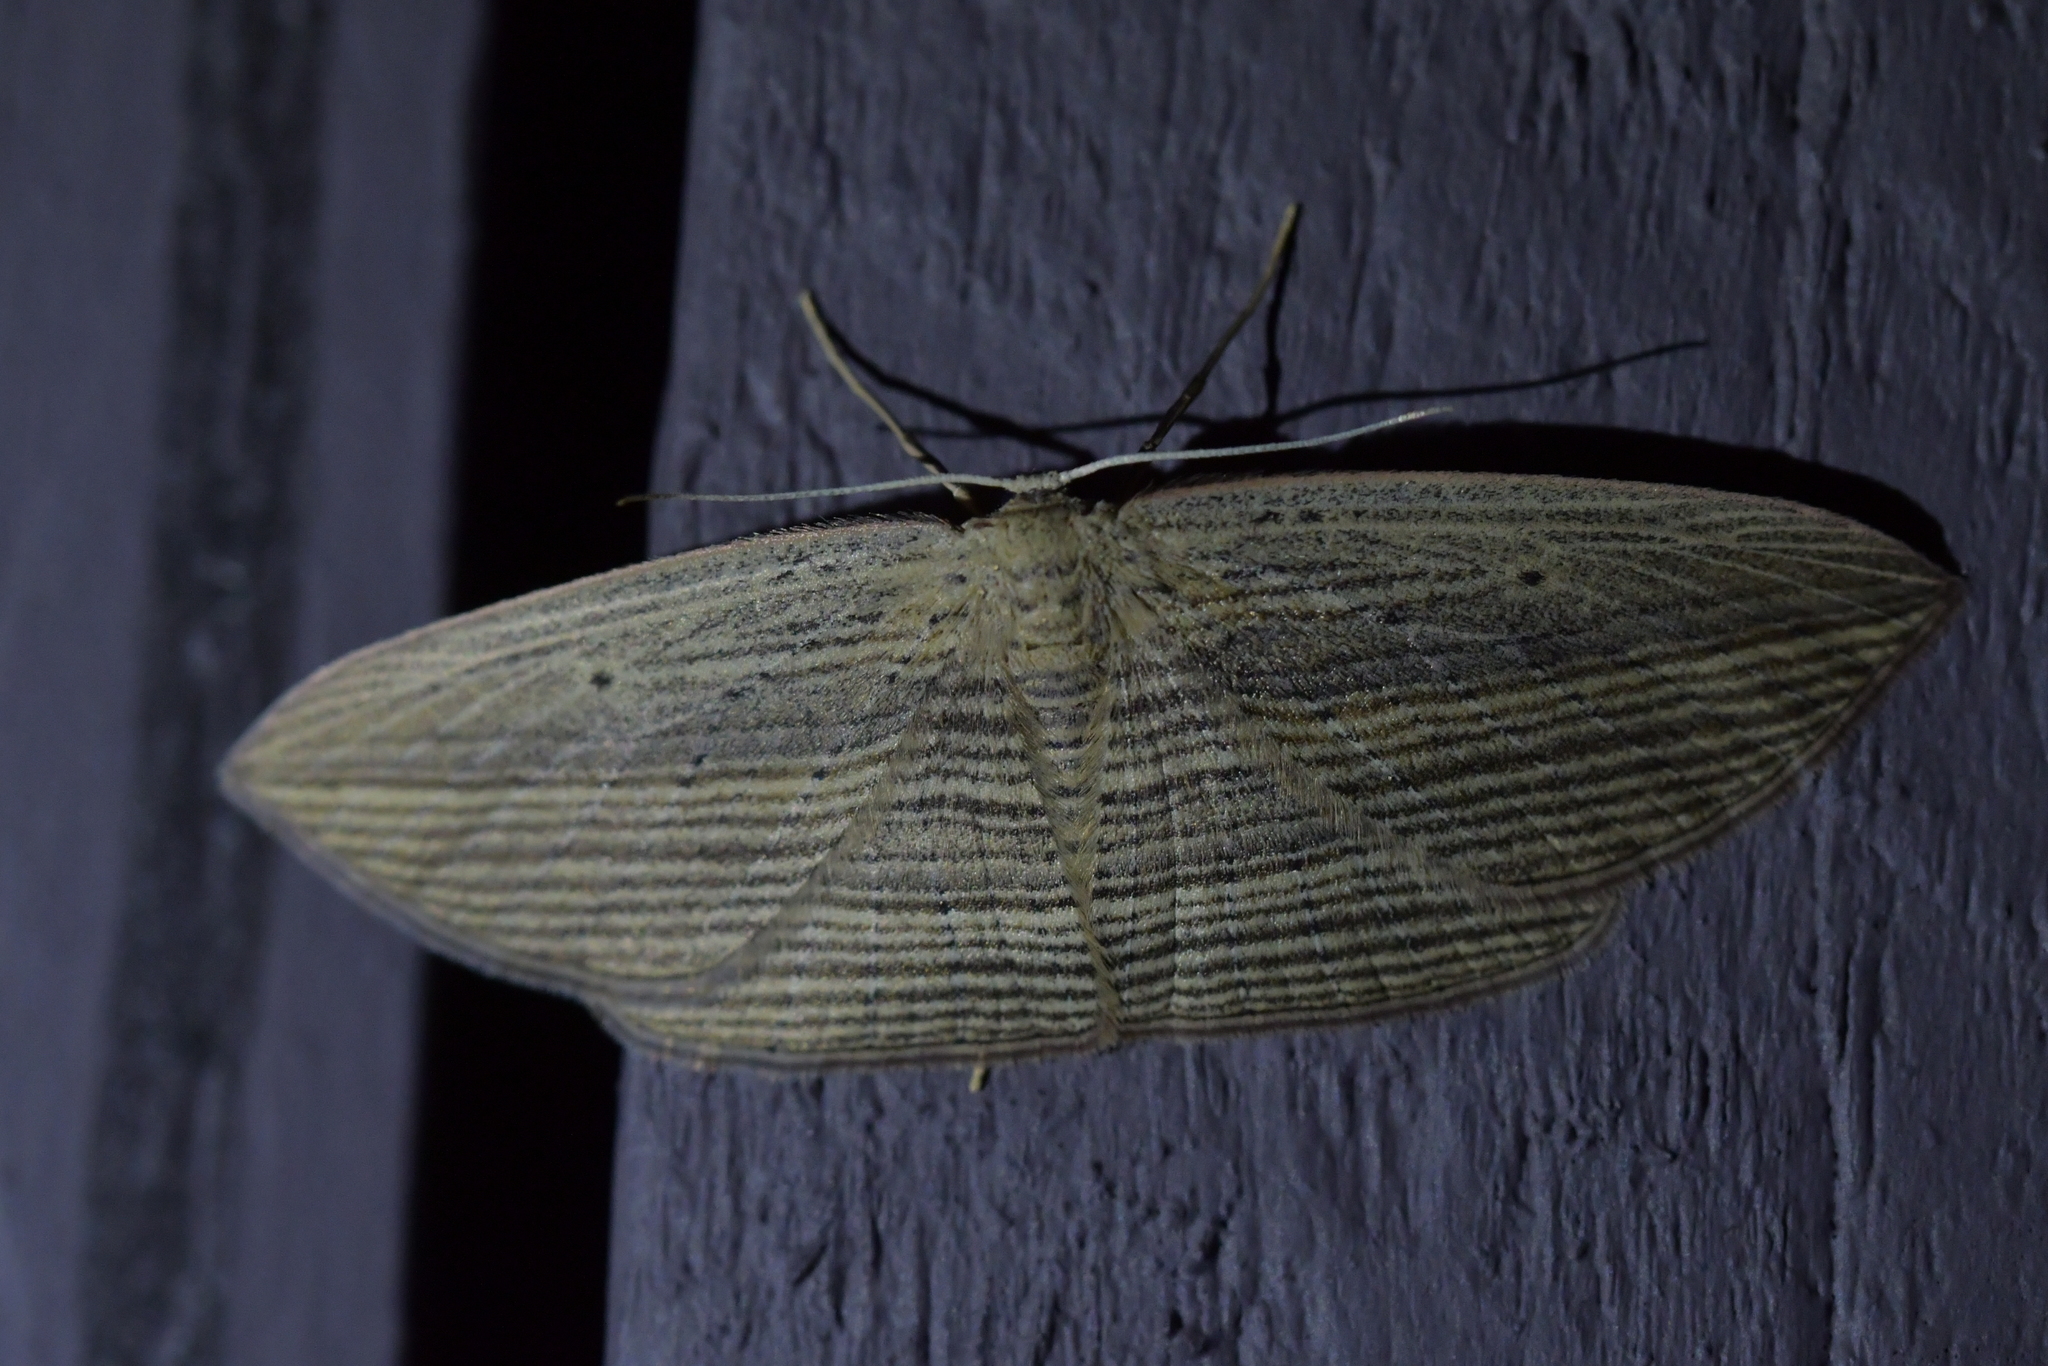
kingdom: Animalia
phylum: Arthropoda
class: Insecta
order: Lepidoptera
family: Geometridae
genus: Epiphryne
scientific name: Epiphryne verriculata
